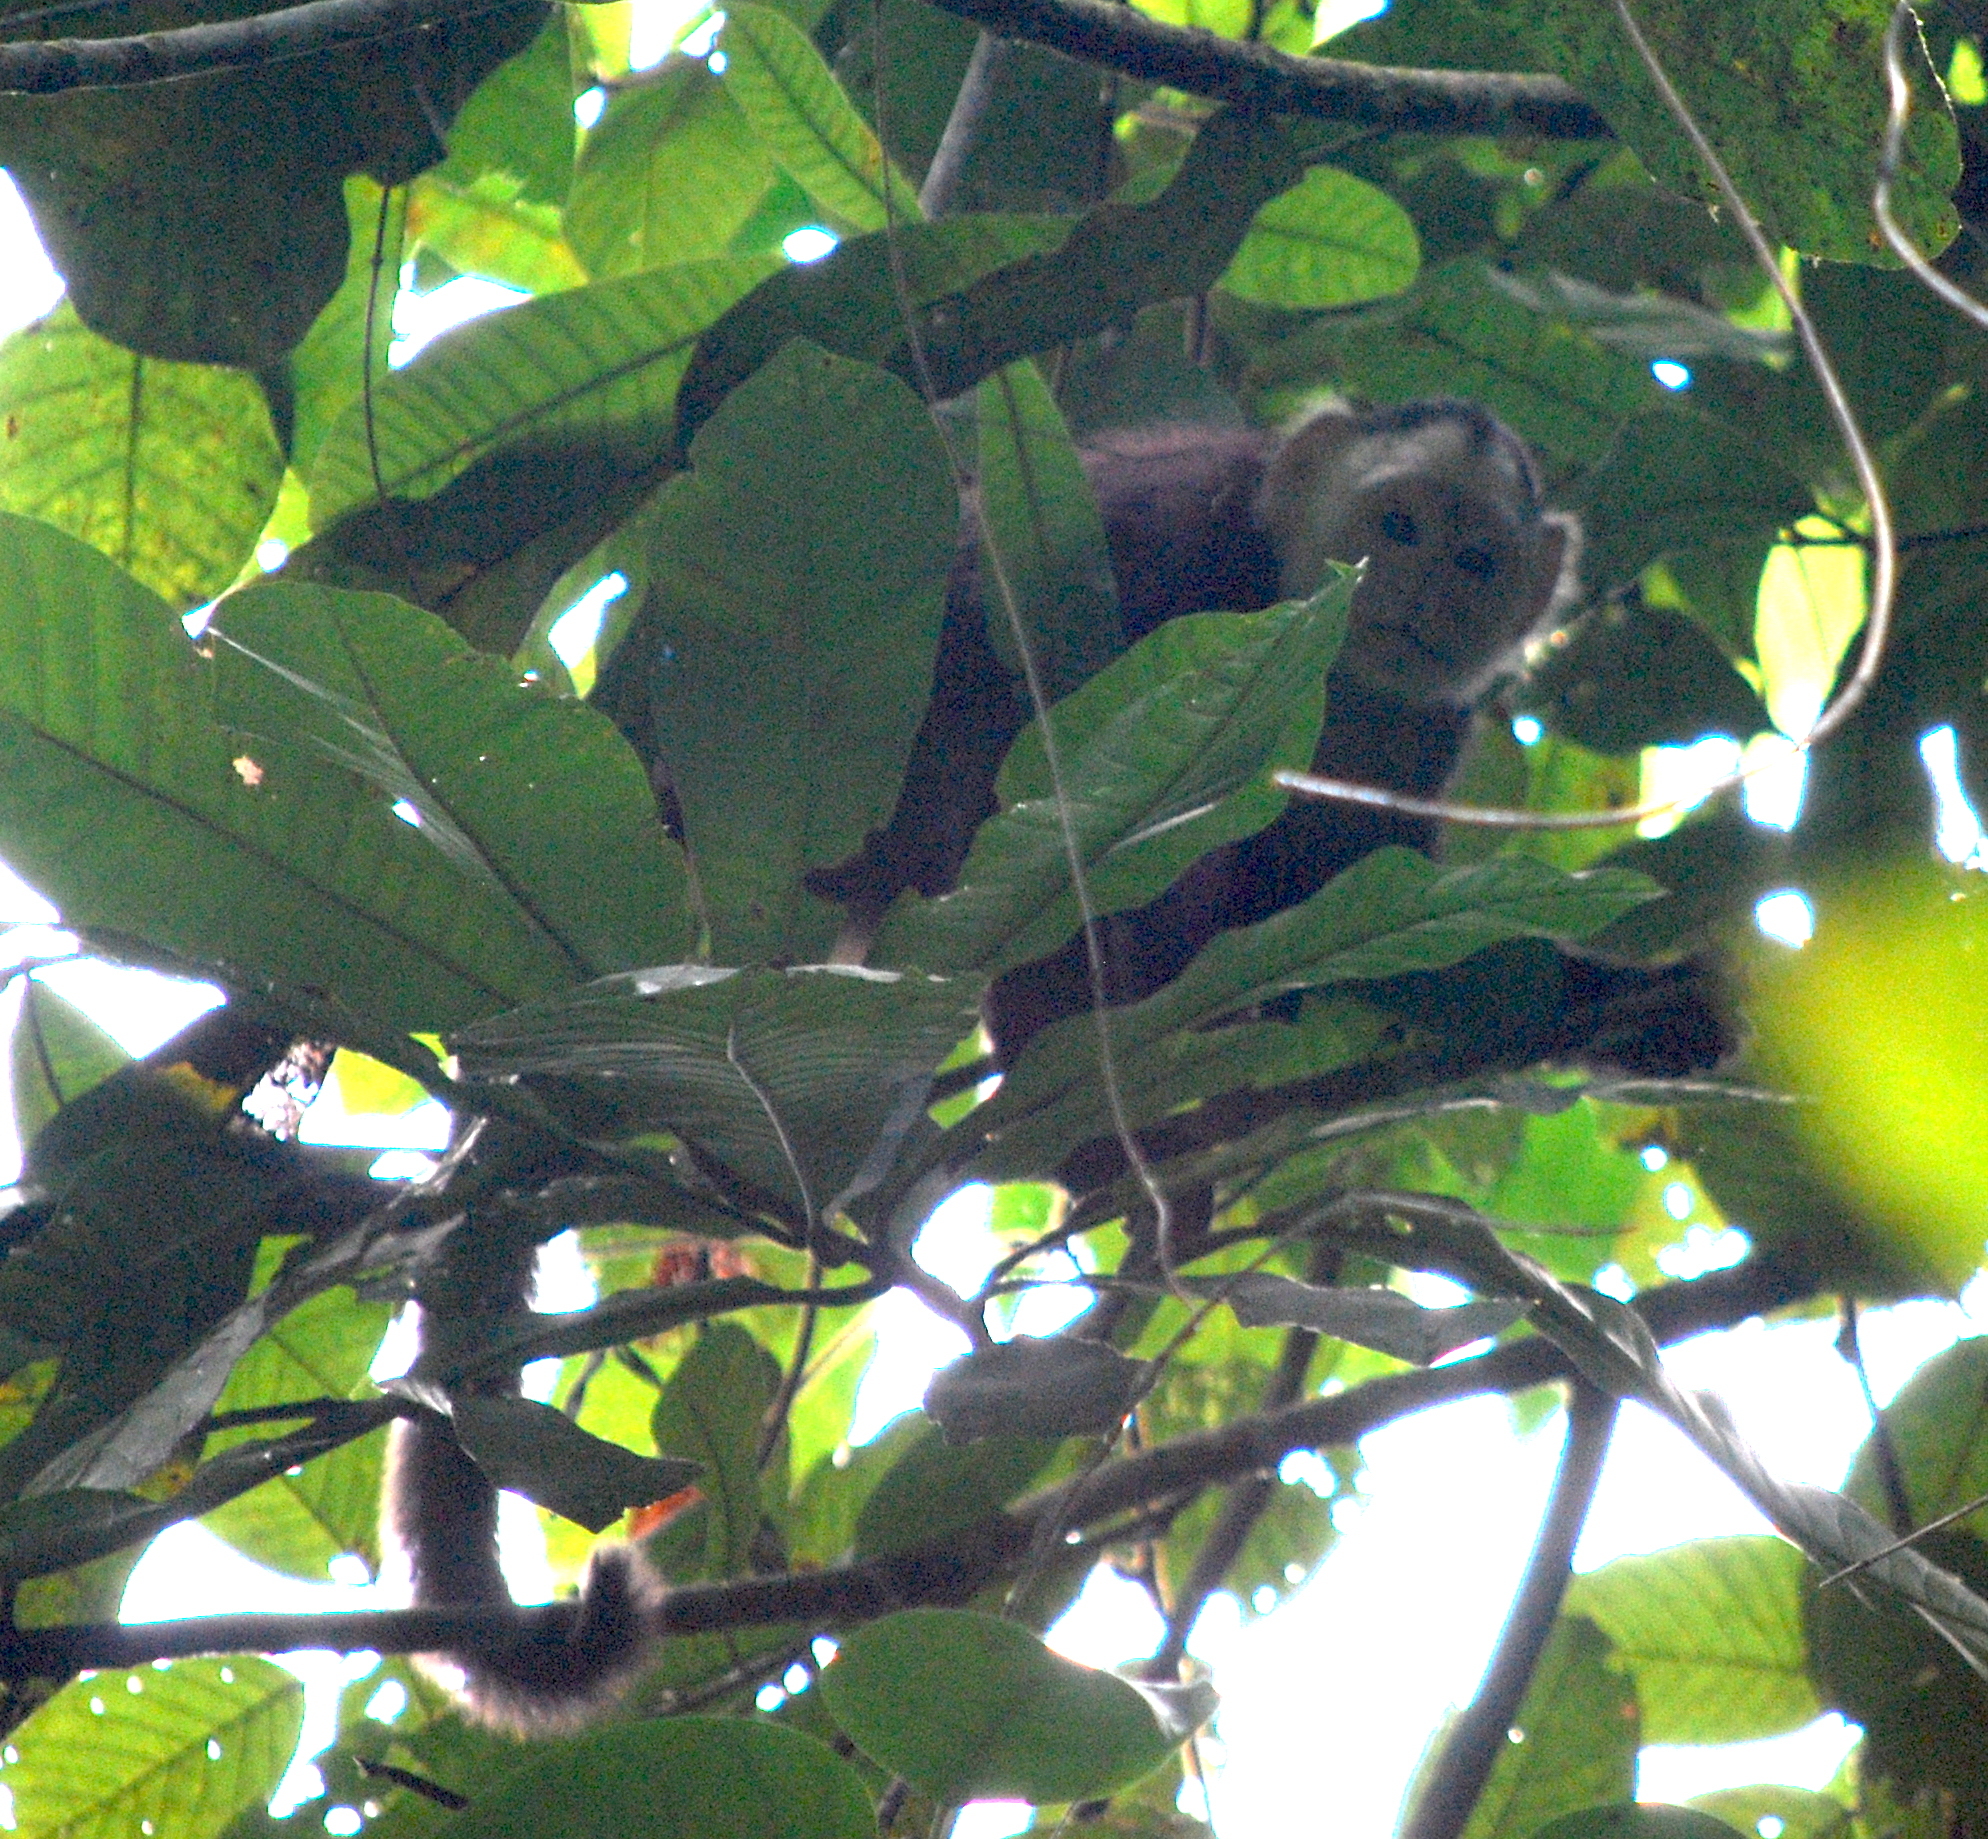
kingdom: Animalia
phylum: Chordata
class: Mammalia
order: Primates
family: Cebidae
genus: Cebus
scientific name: Cebus versicolor
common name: Varied capuchin
